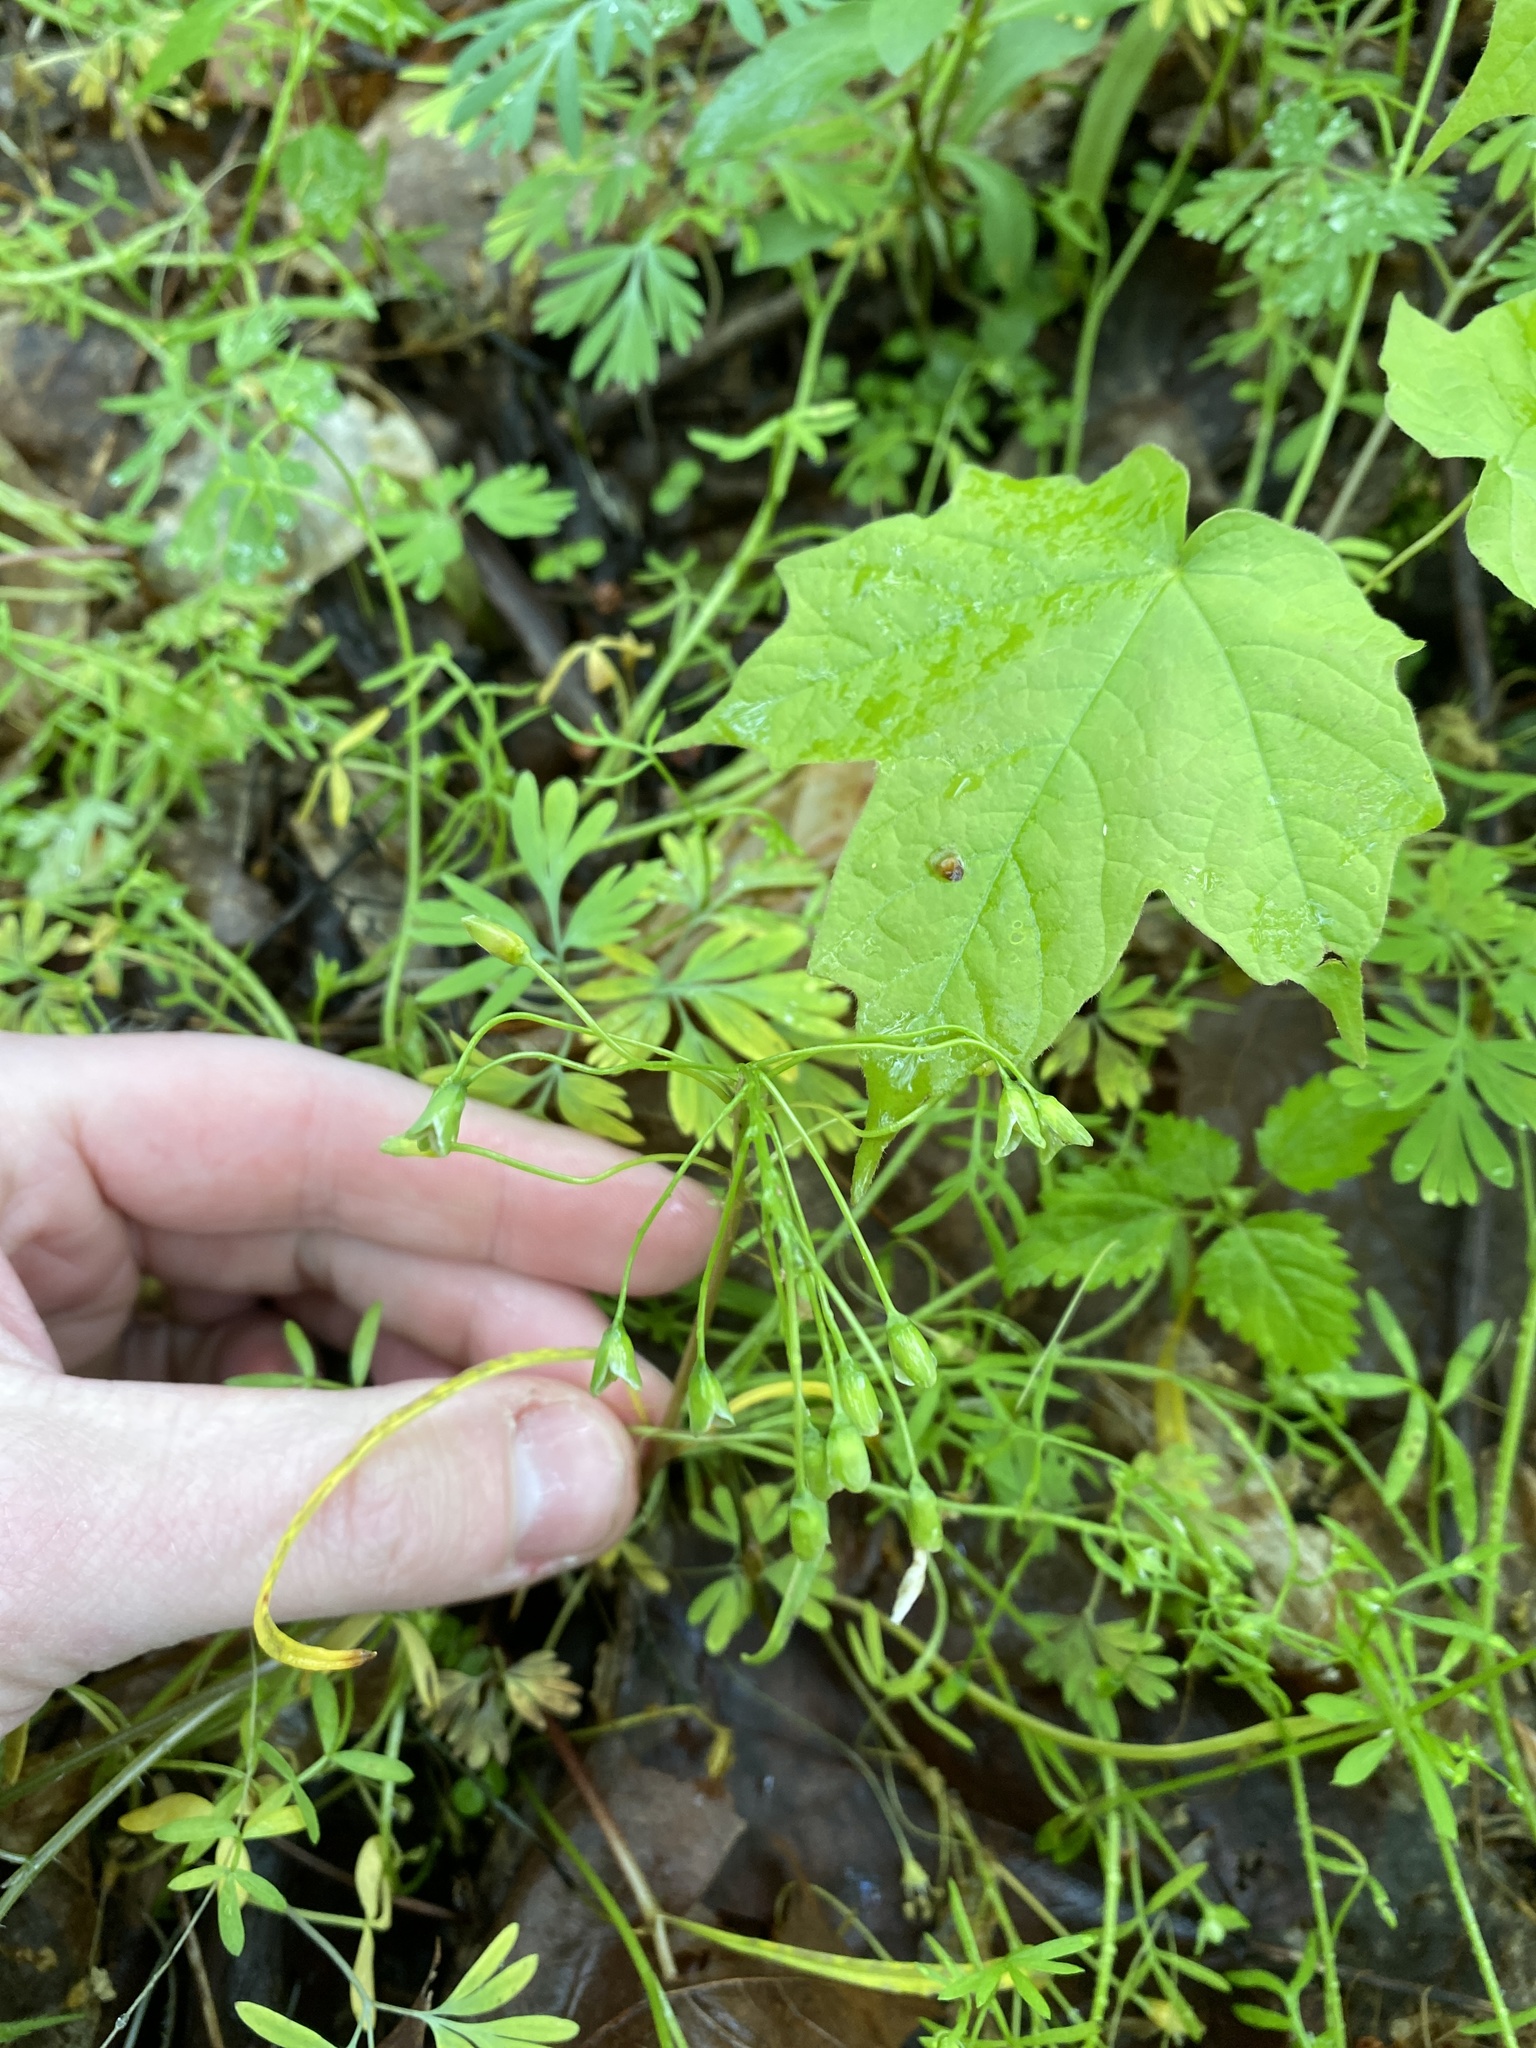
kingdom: Plantae
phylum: Tracheophyta
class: Magnoliopsida
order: Caryophyllales
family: Montiaceae
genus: Claytonia
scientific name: Claytonia virginica
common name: Virginia springbeauty
